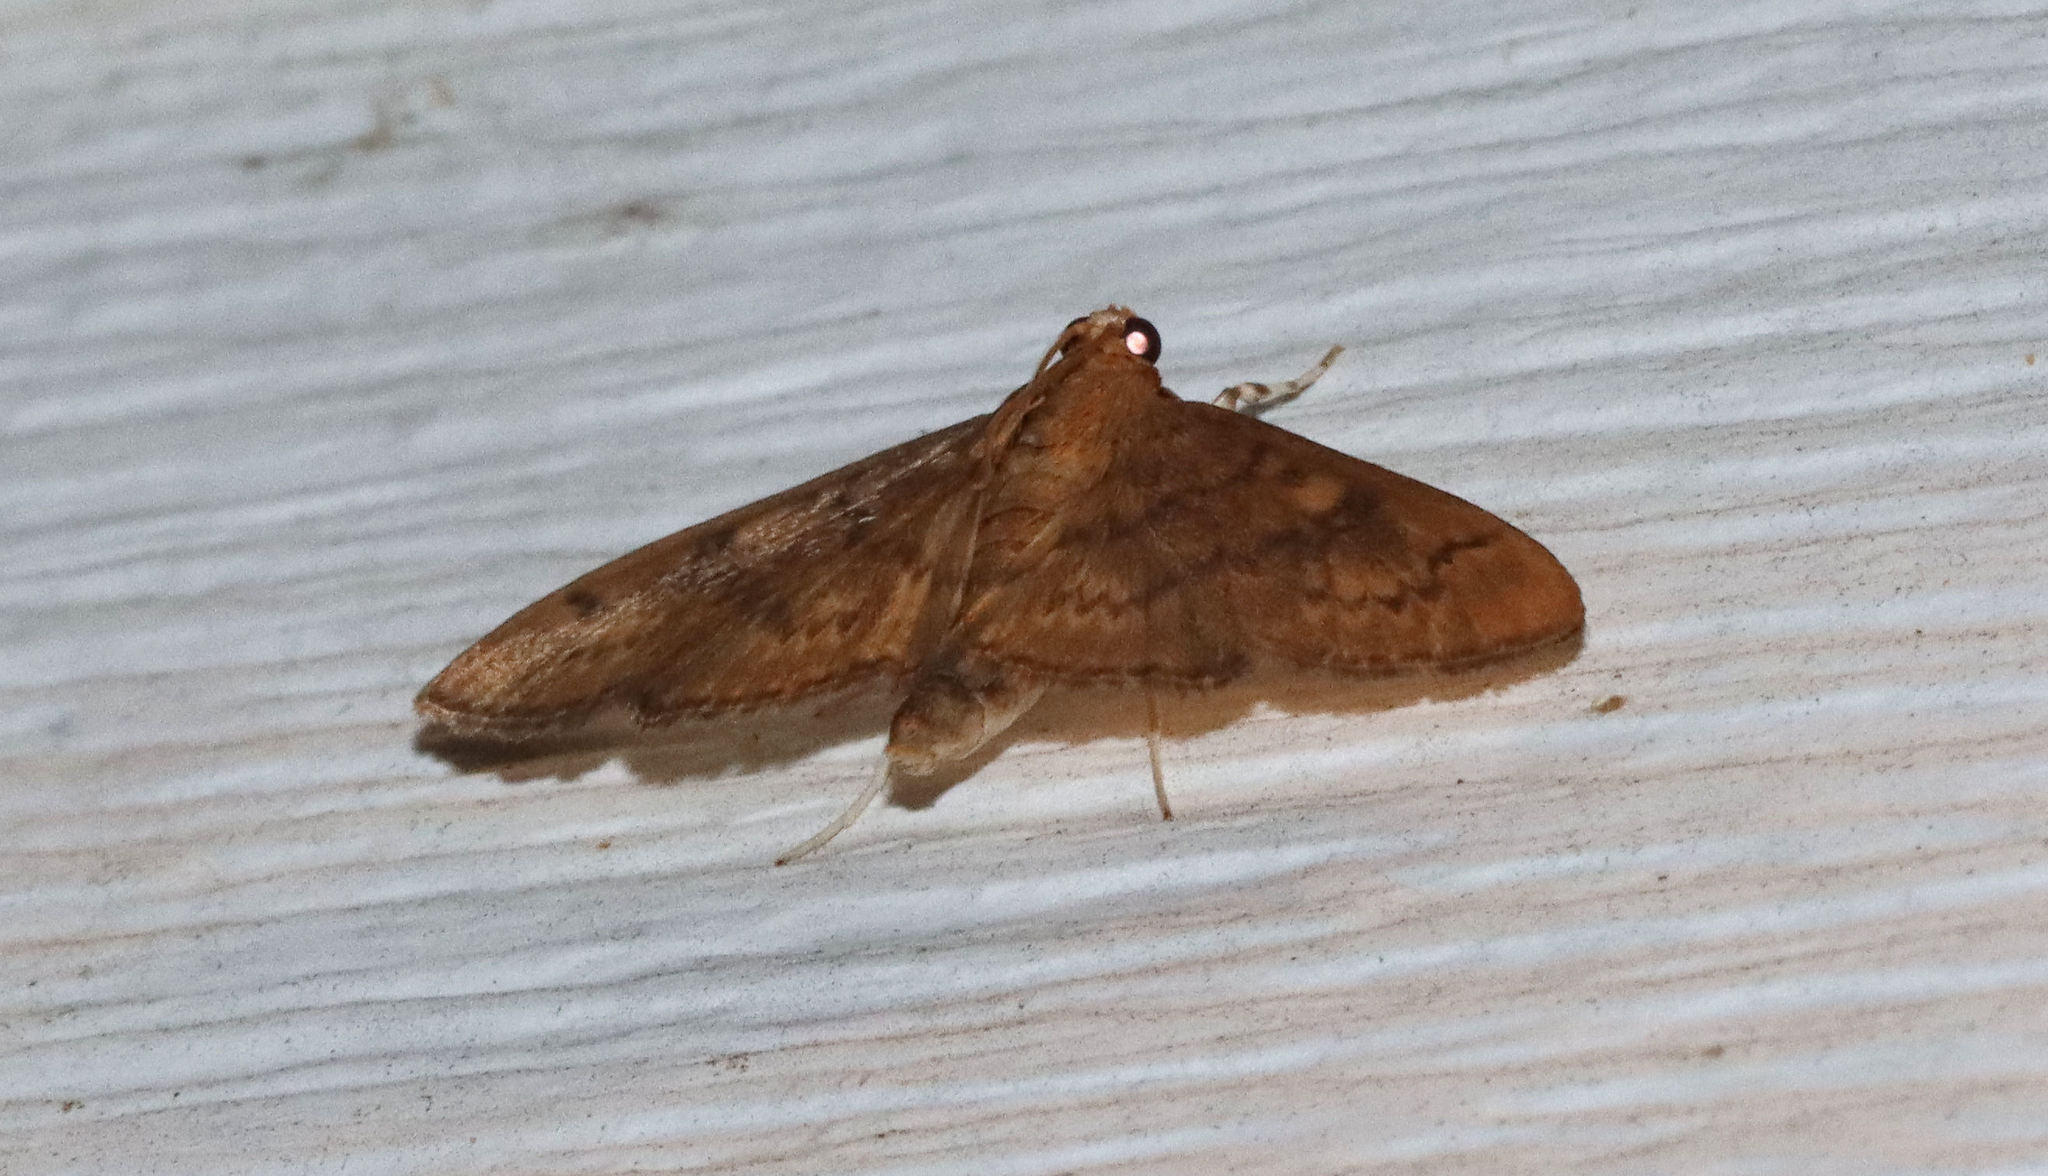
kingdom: Animalia
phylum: Arthropoda
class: Insecta
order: Lepidoptera
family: Crambidae
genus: Syllepte
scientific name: Syllepte obscuralis
